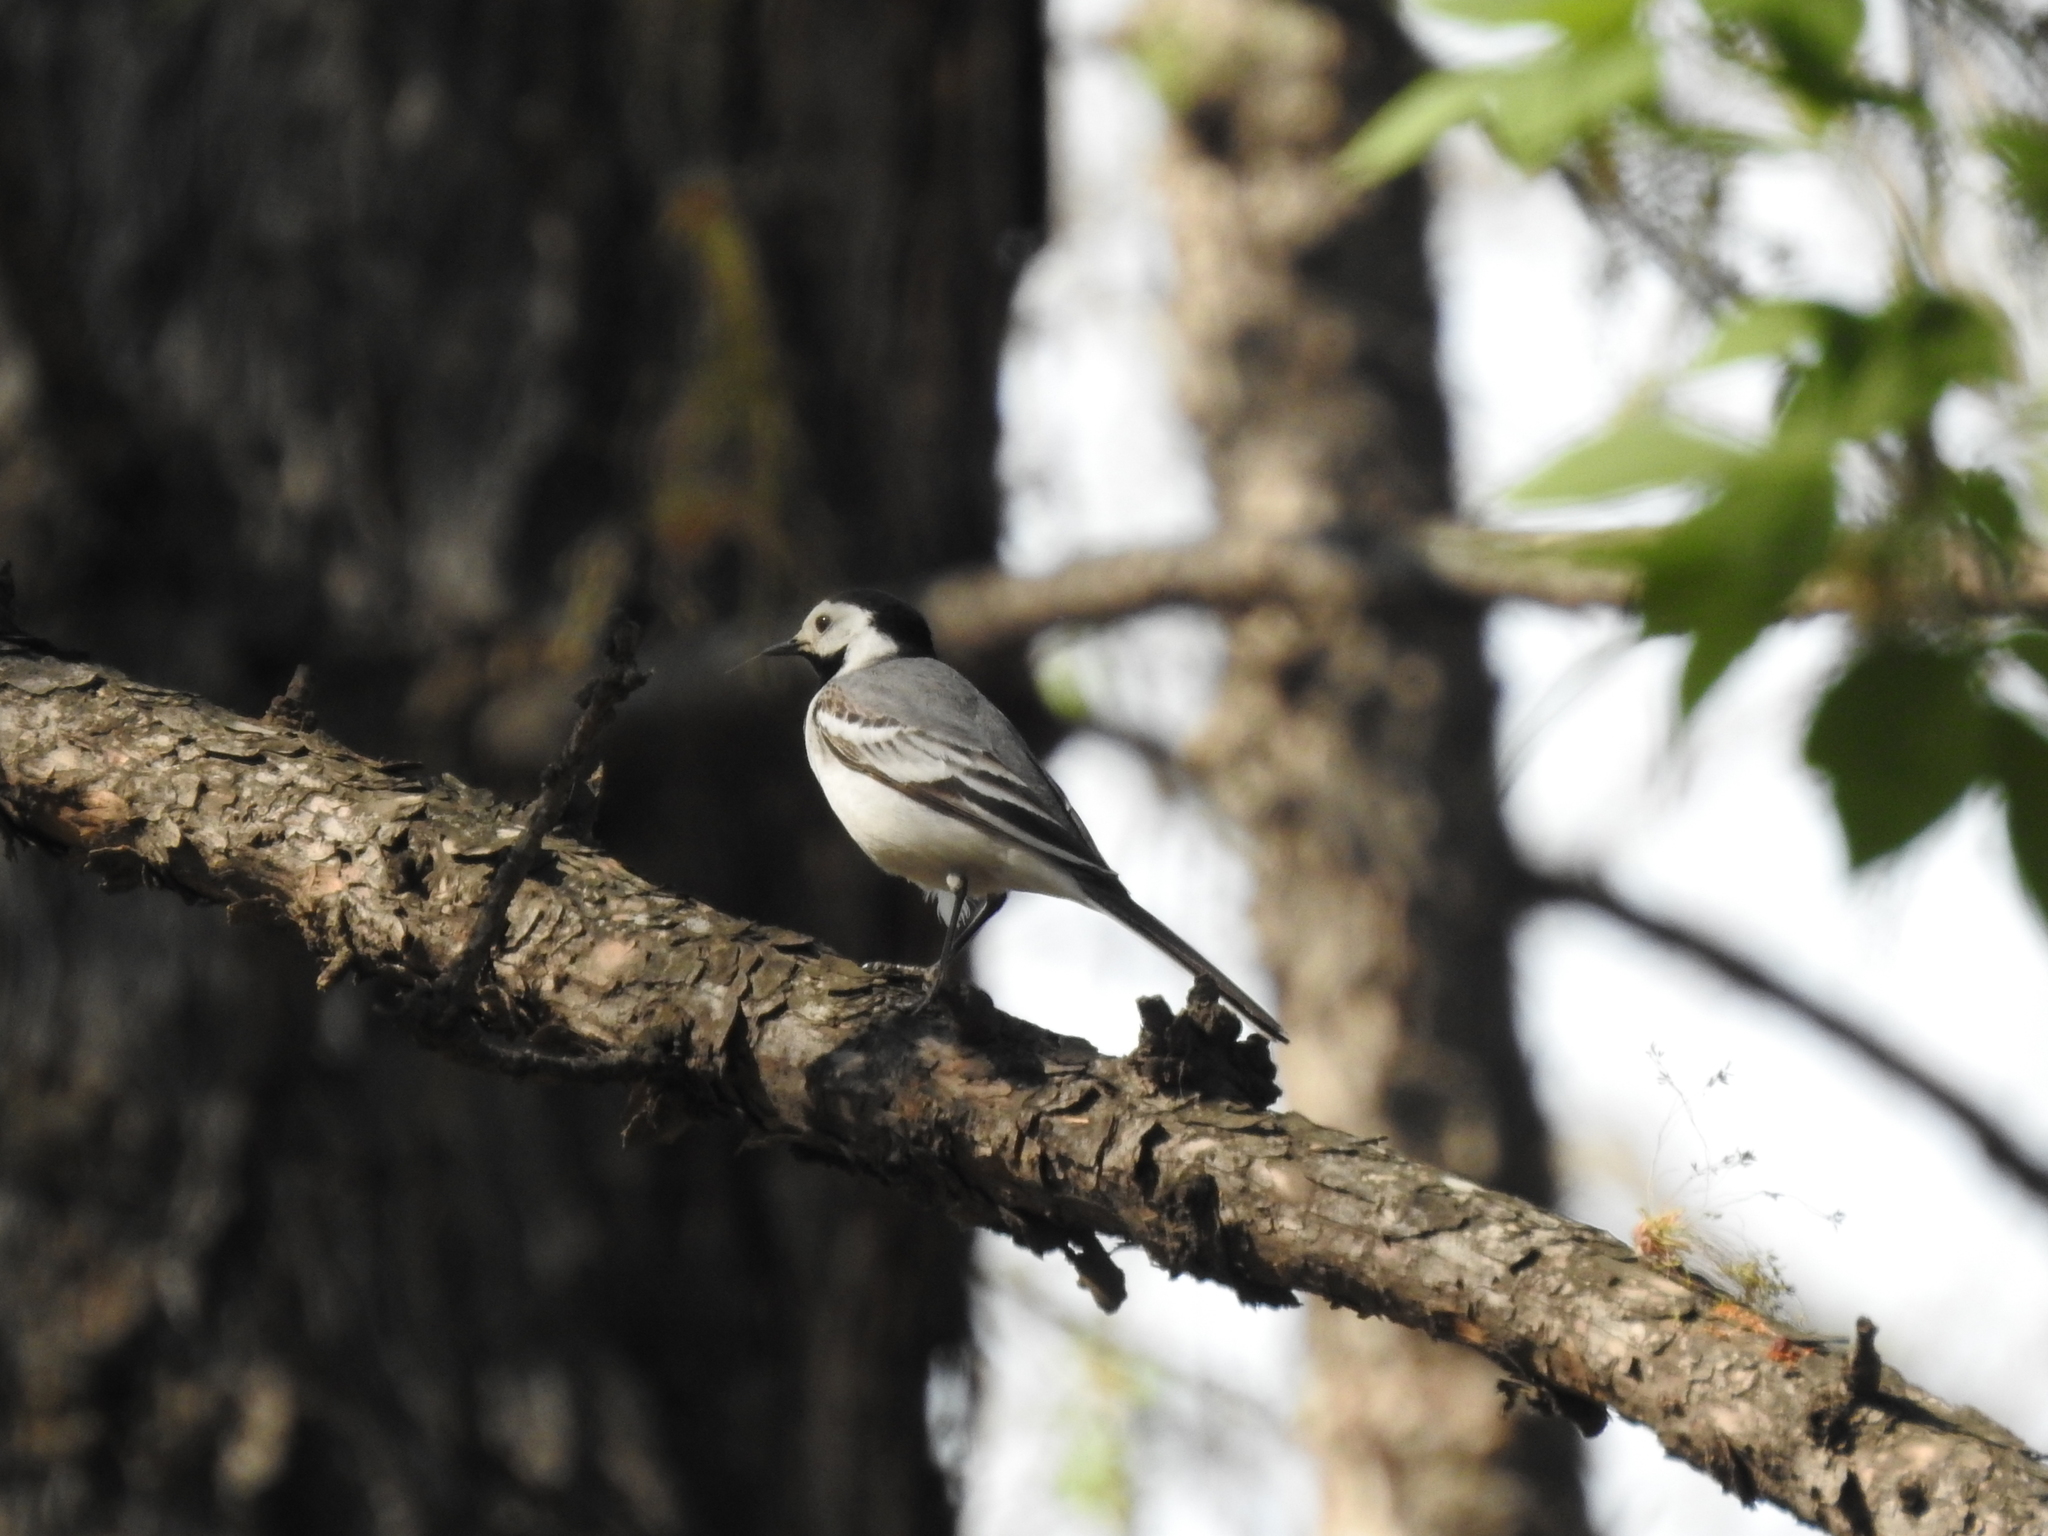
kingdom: Animalia
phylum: Chordata
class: Aves
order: Passeriformes
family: Motacillidae
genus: Motacilla
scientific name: Motacilla alba
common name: White wagtail
